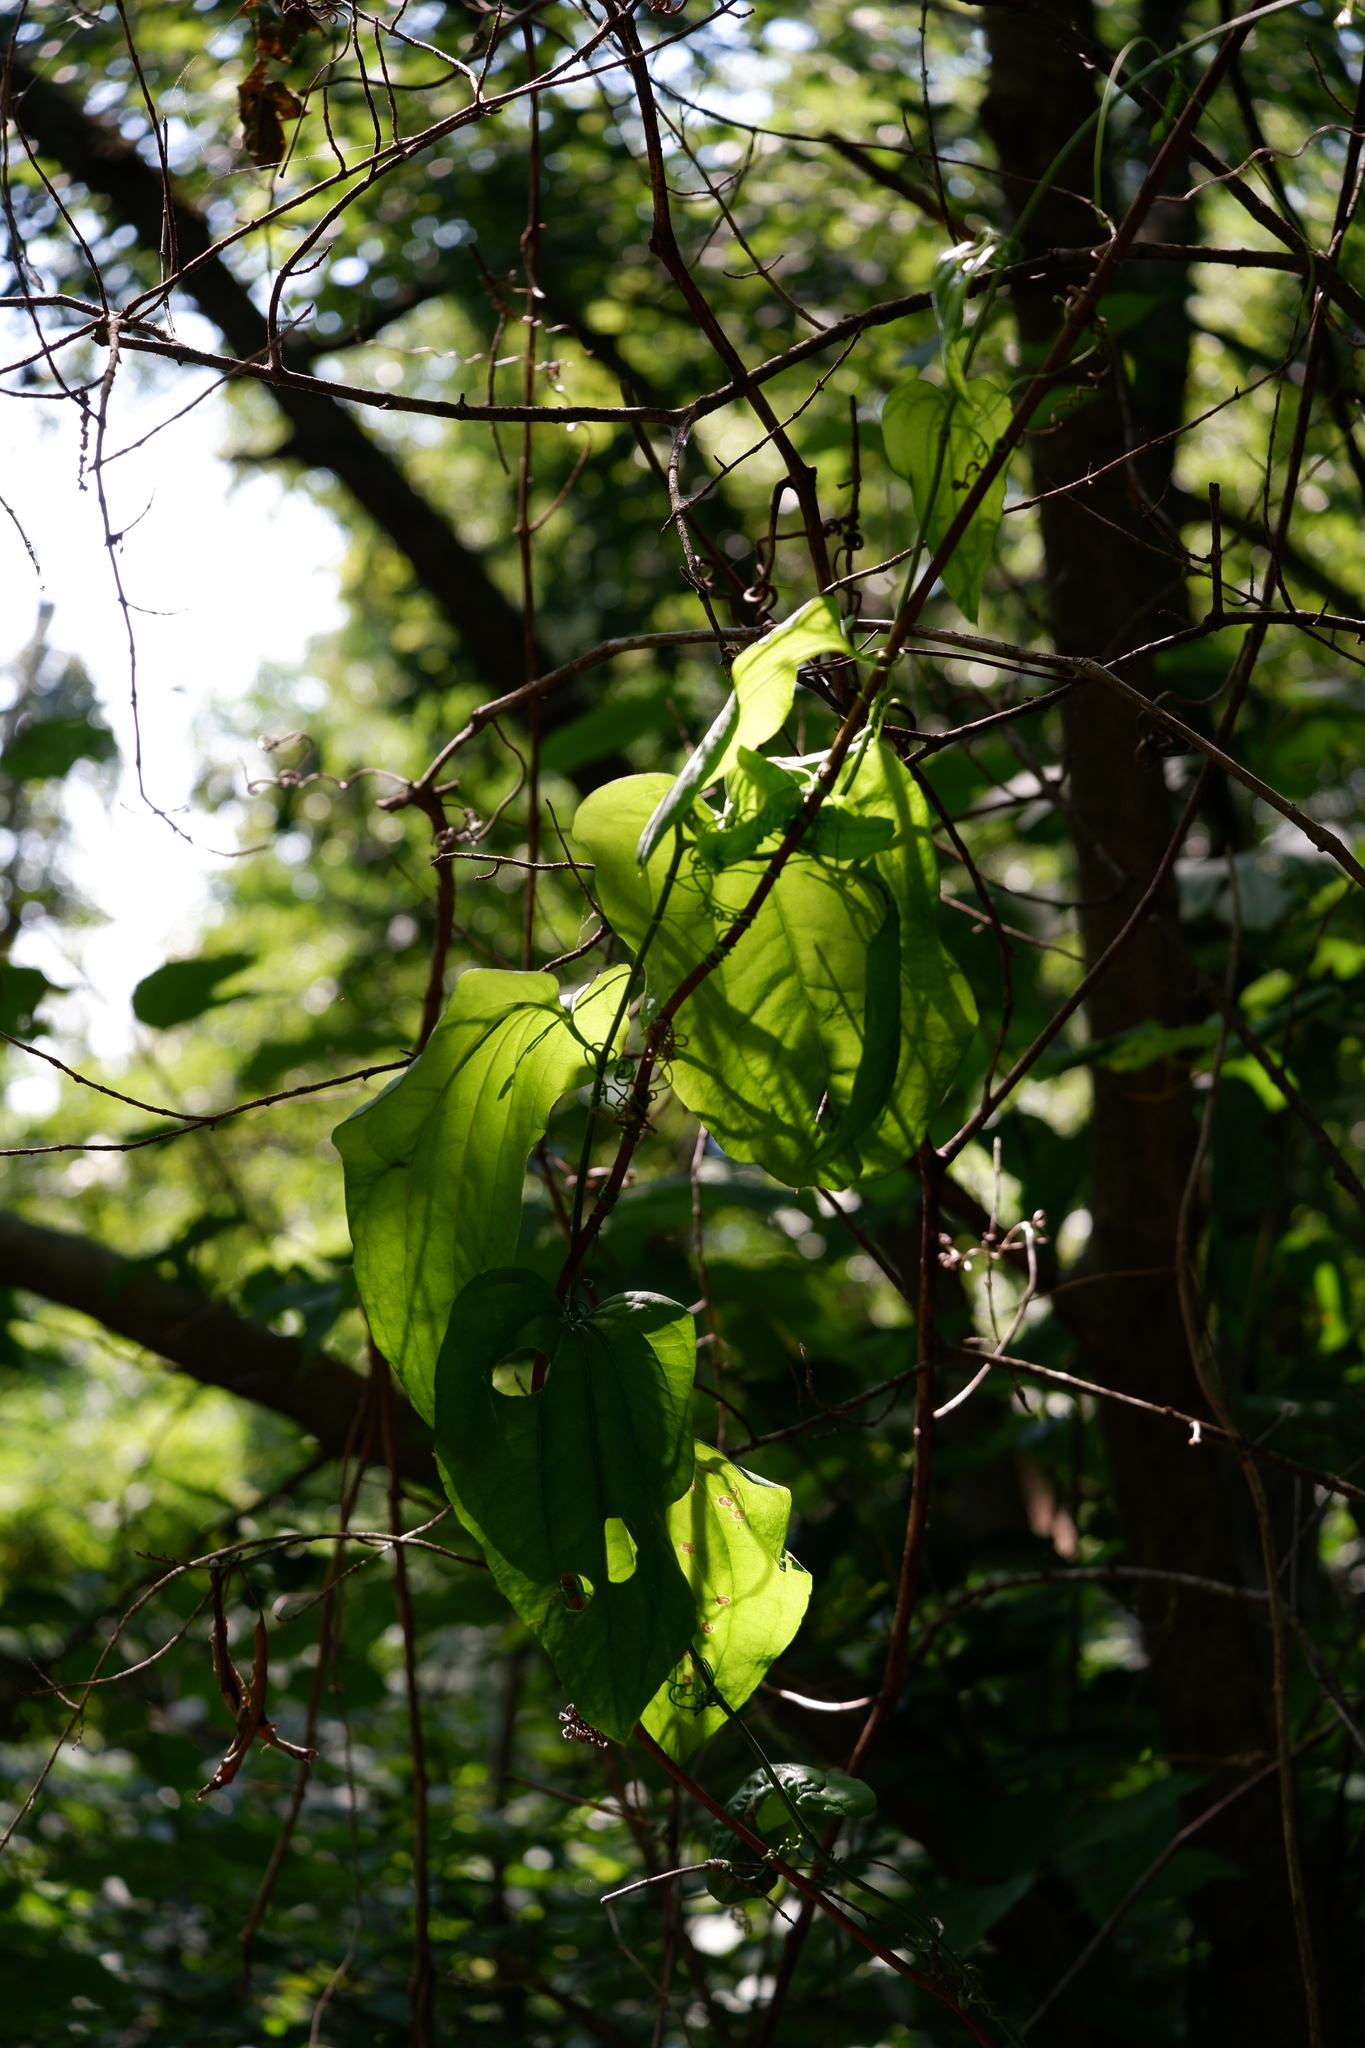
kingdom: Plantae
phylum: Tracheophyta
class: Liliopsida
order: Liliales
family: Smilacaceae
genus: Smilax
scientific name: Smilax tamnoides
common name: Hellfetter
